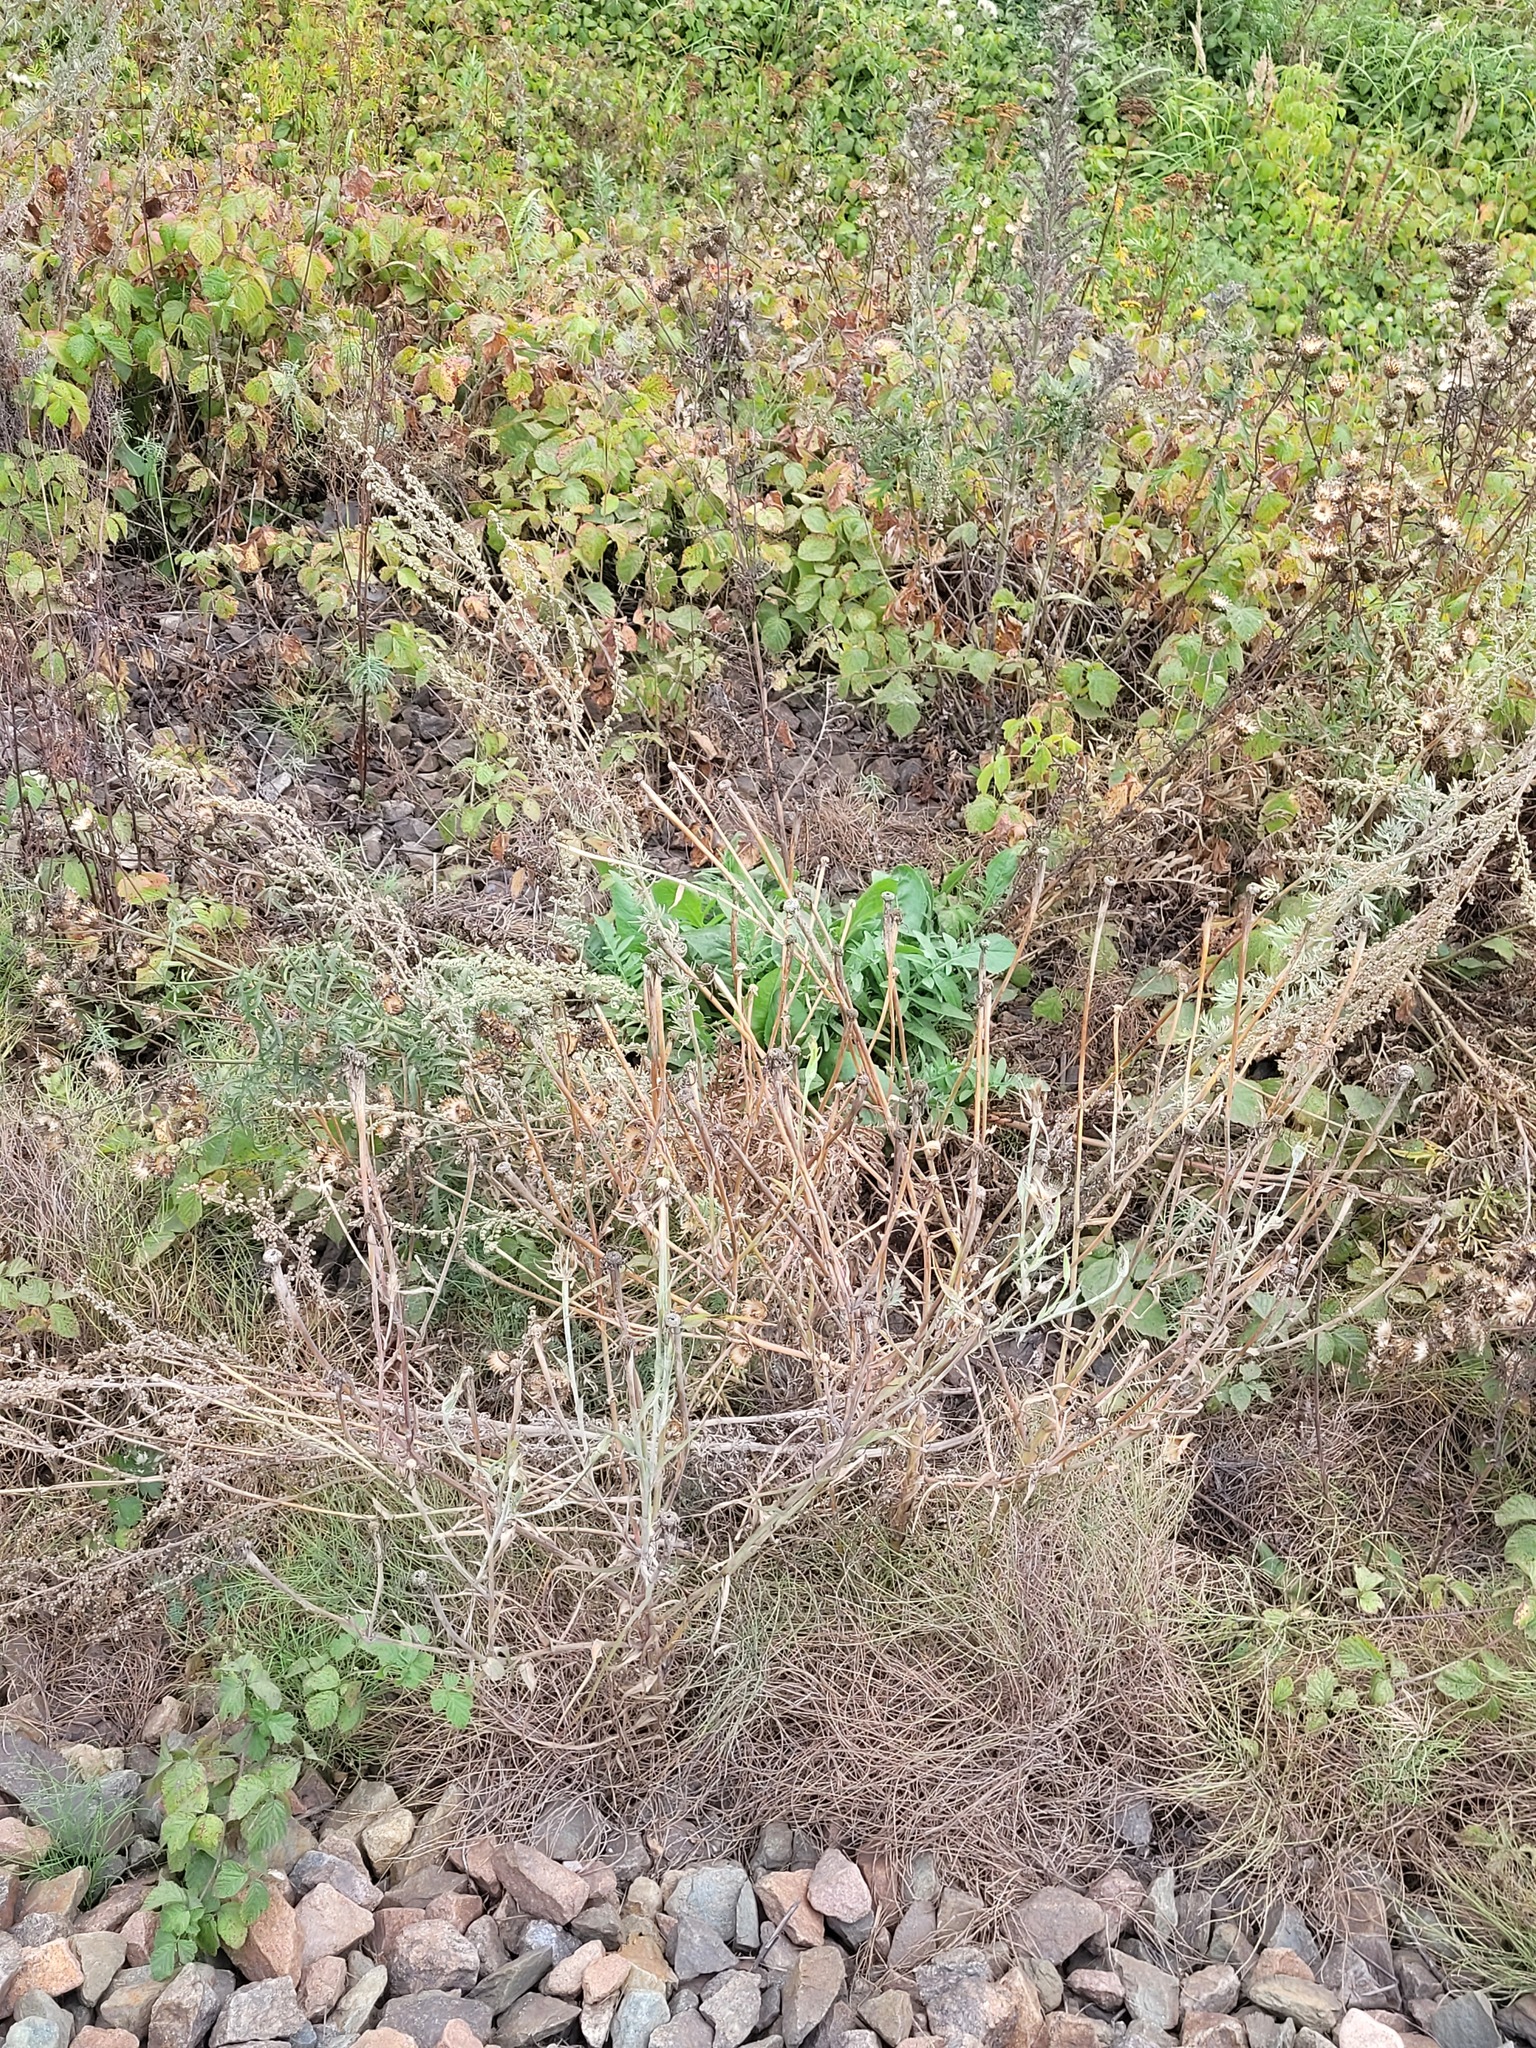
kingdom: Plantae
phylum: Tracheophyta
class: Magnoliopsida
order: Asterales
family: Asteraceae
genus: Tragopogon
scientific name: Tragopogon dubius
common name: Yellow salsify
